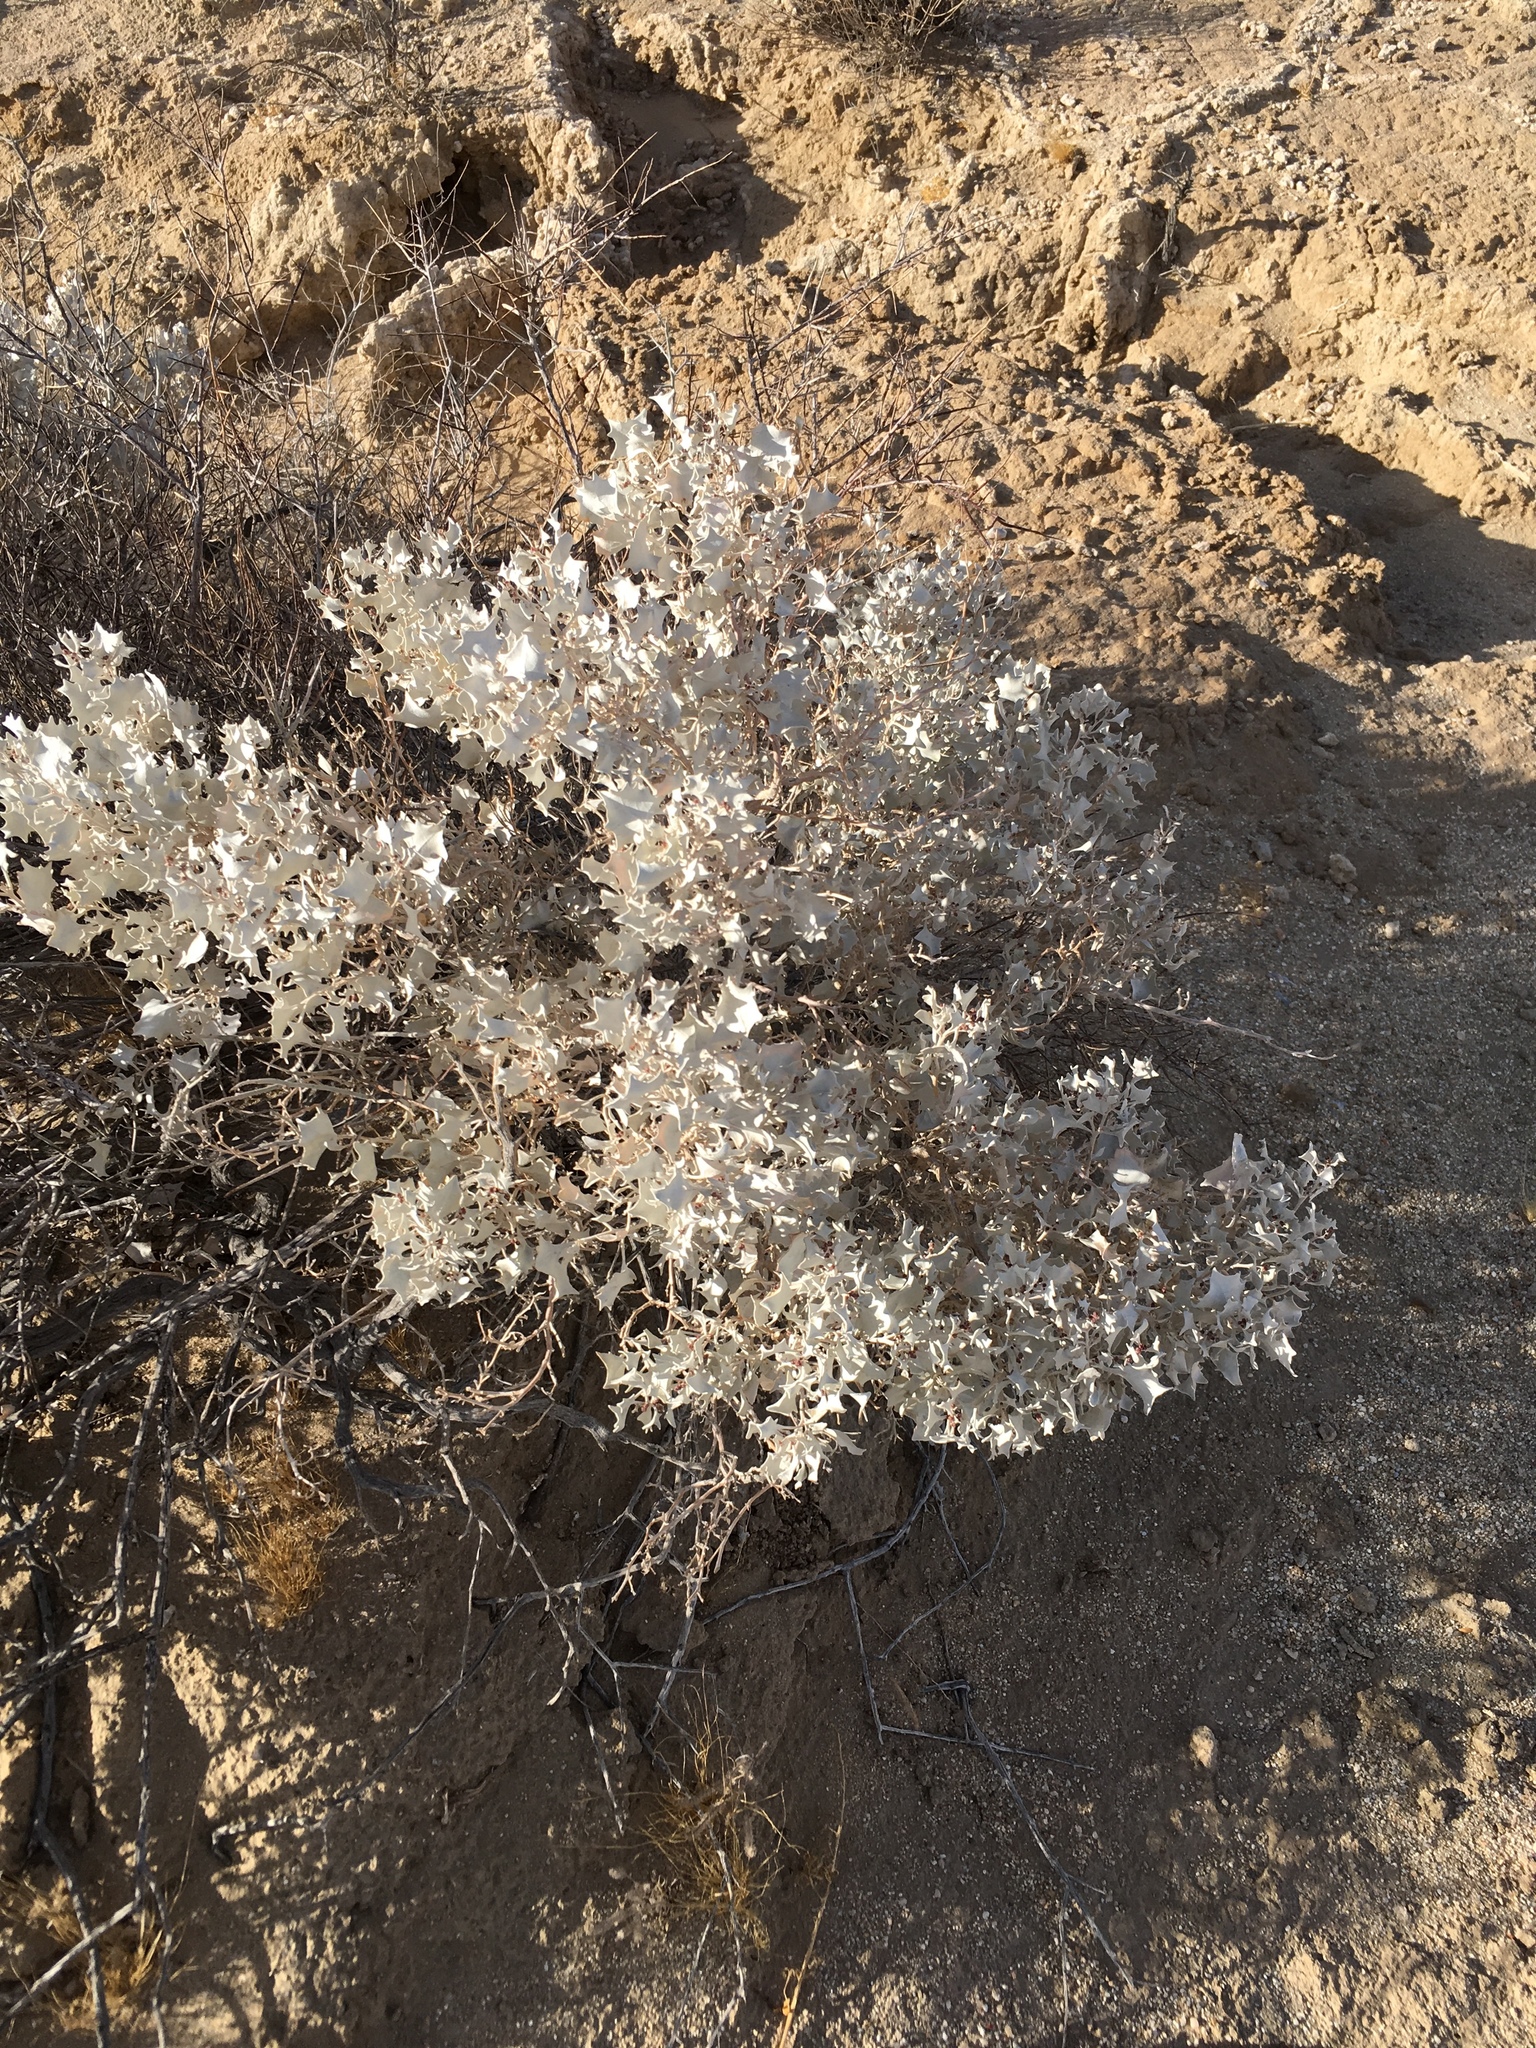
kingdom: Plantae
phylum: Tracheophyta
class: Magnoliopsida
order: Caryophyllales
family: Amaranthaceae
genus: Atriplex
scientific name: Atriplex hymenelytra
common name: Desert-holly
